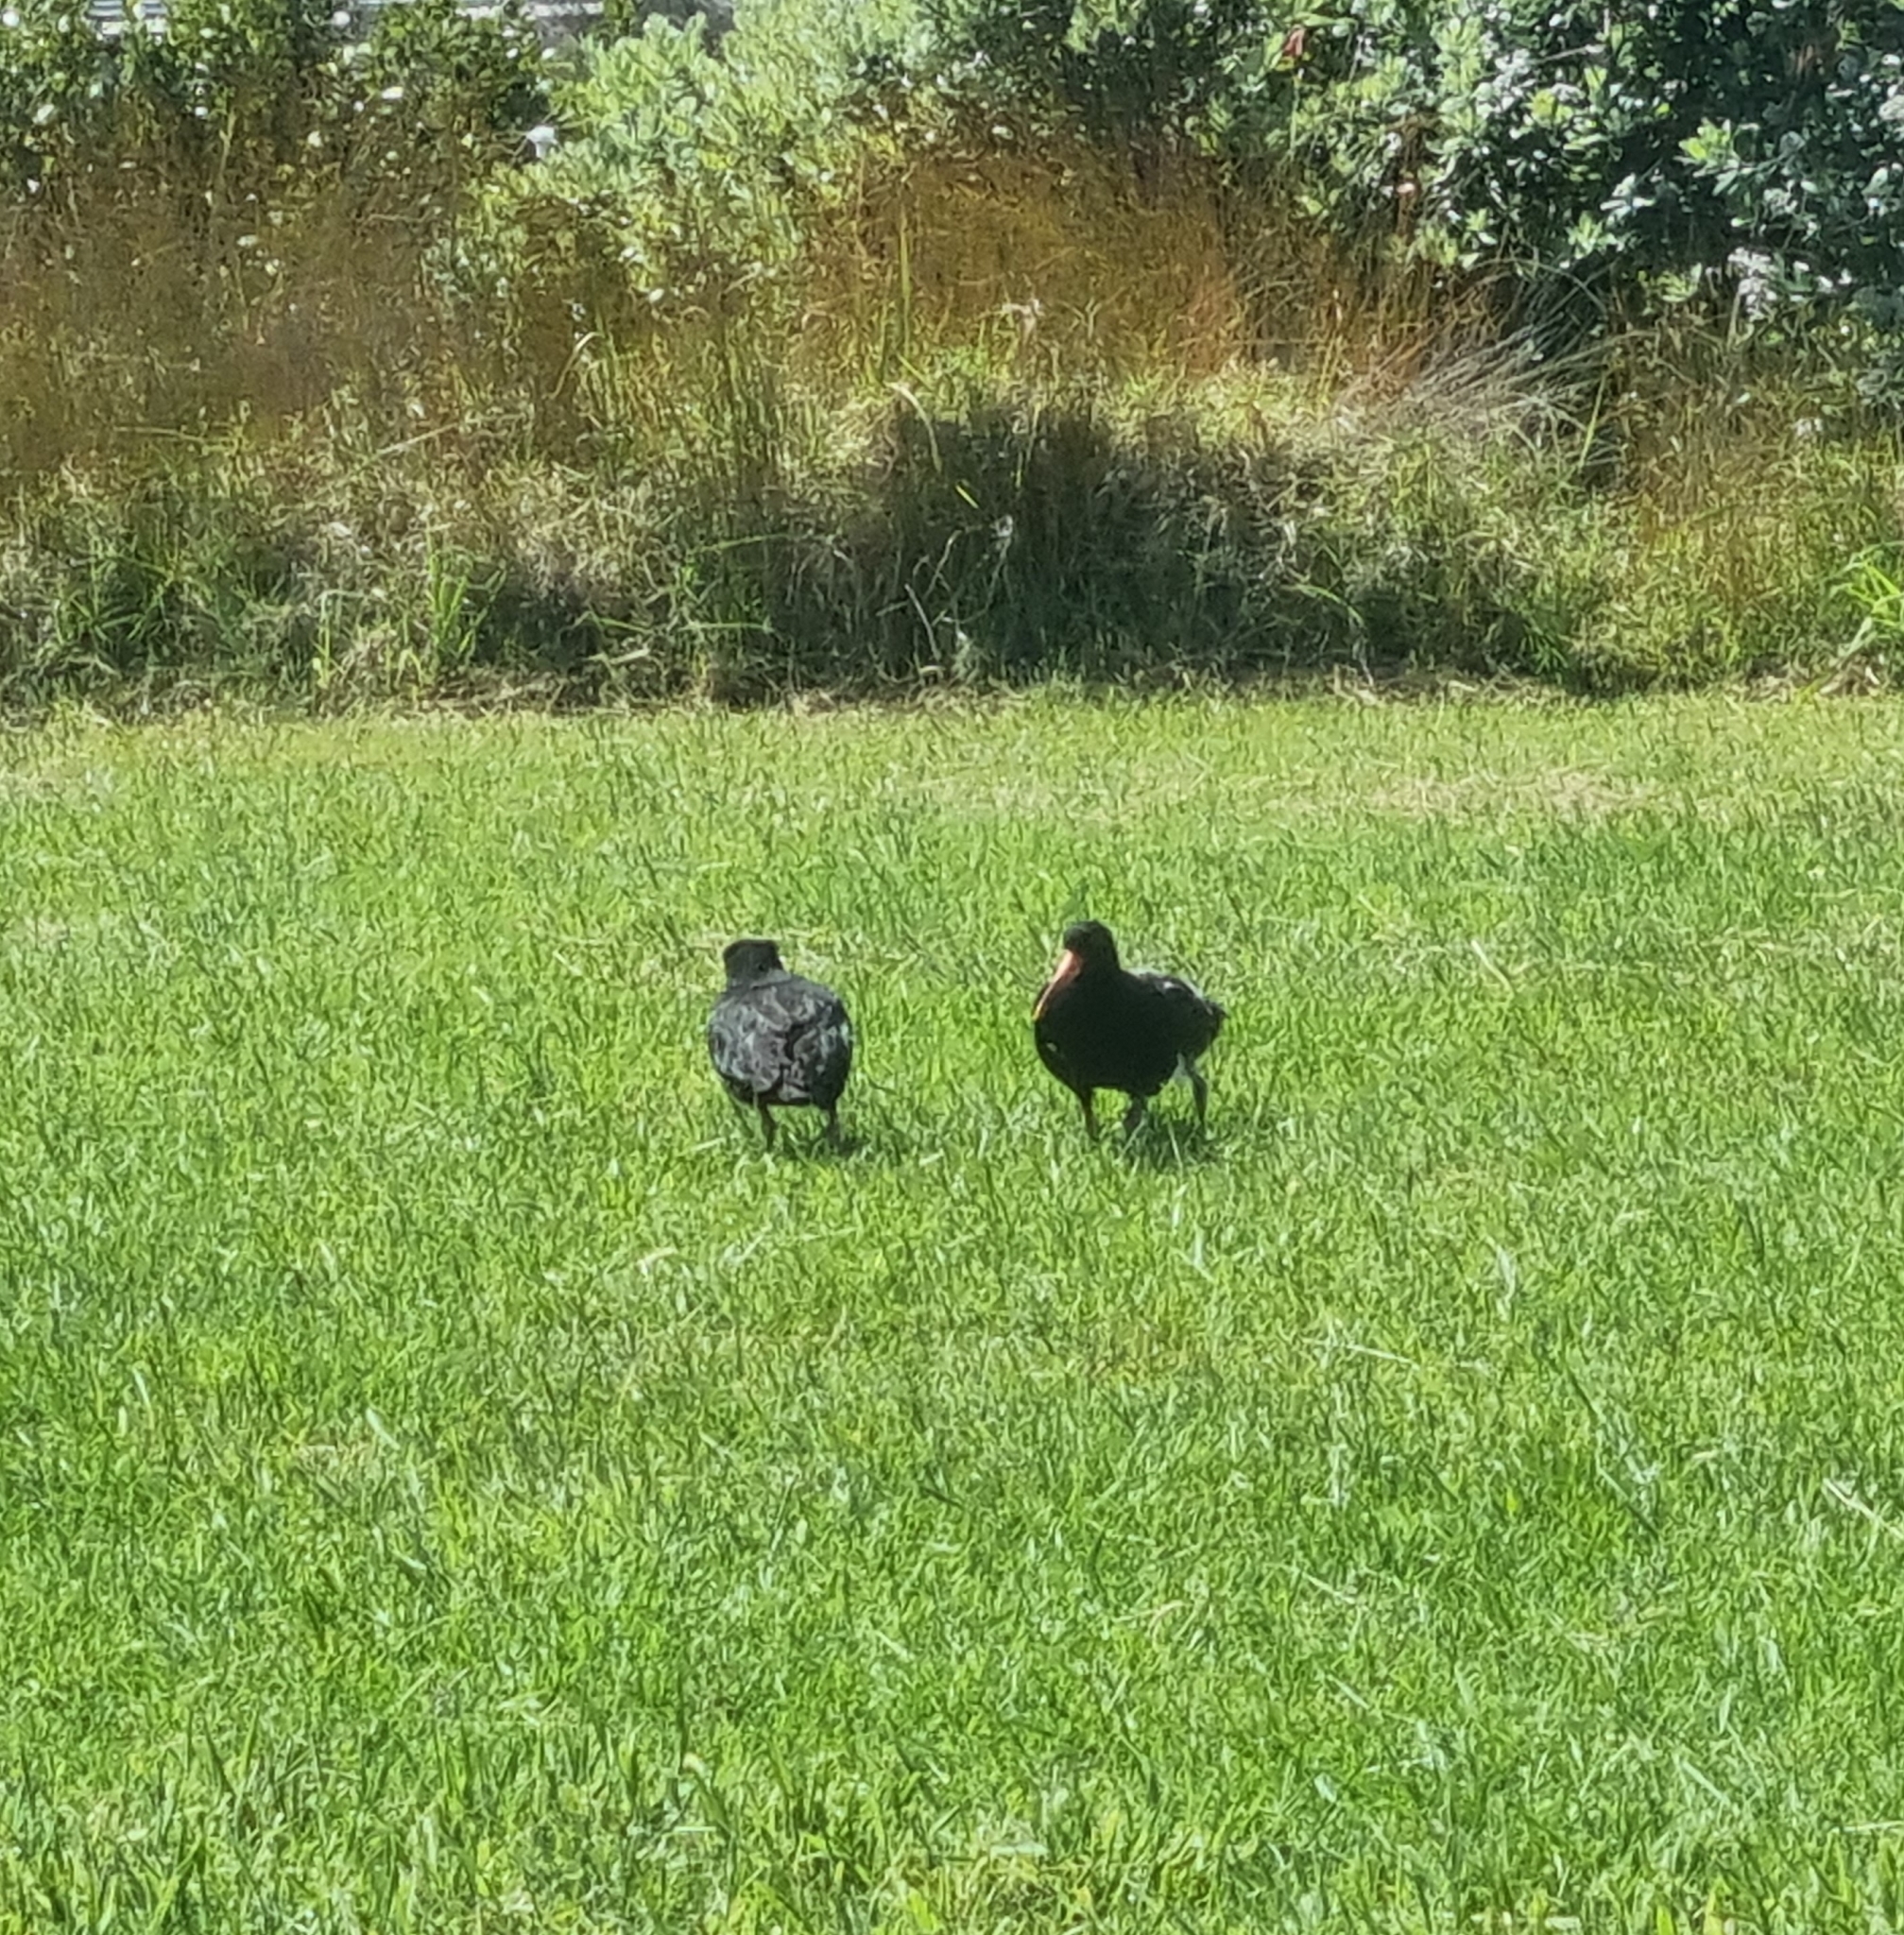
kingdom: Animalia
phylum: Chordata
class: Aves
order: Charadriiformes
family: Haematopodidae
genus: Haematopus
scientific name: Haematopus unicolor
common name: Variable oystercatcher
